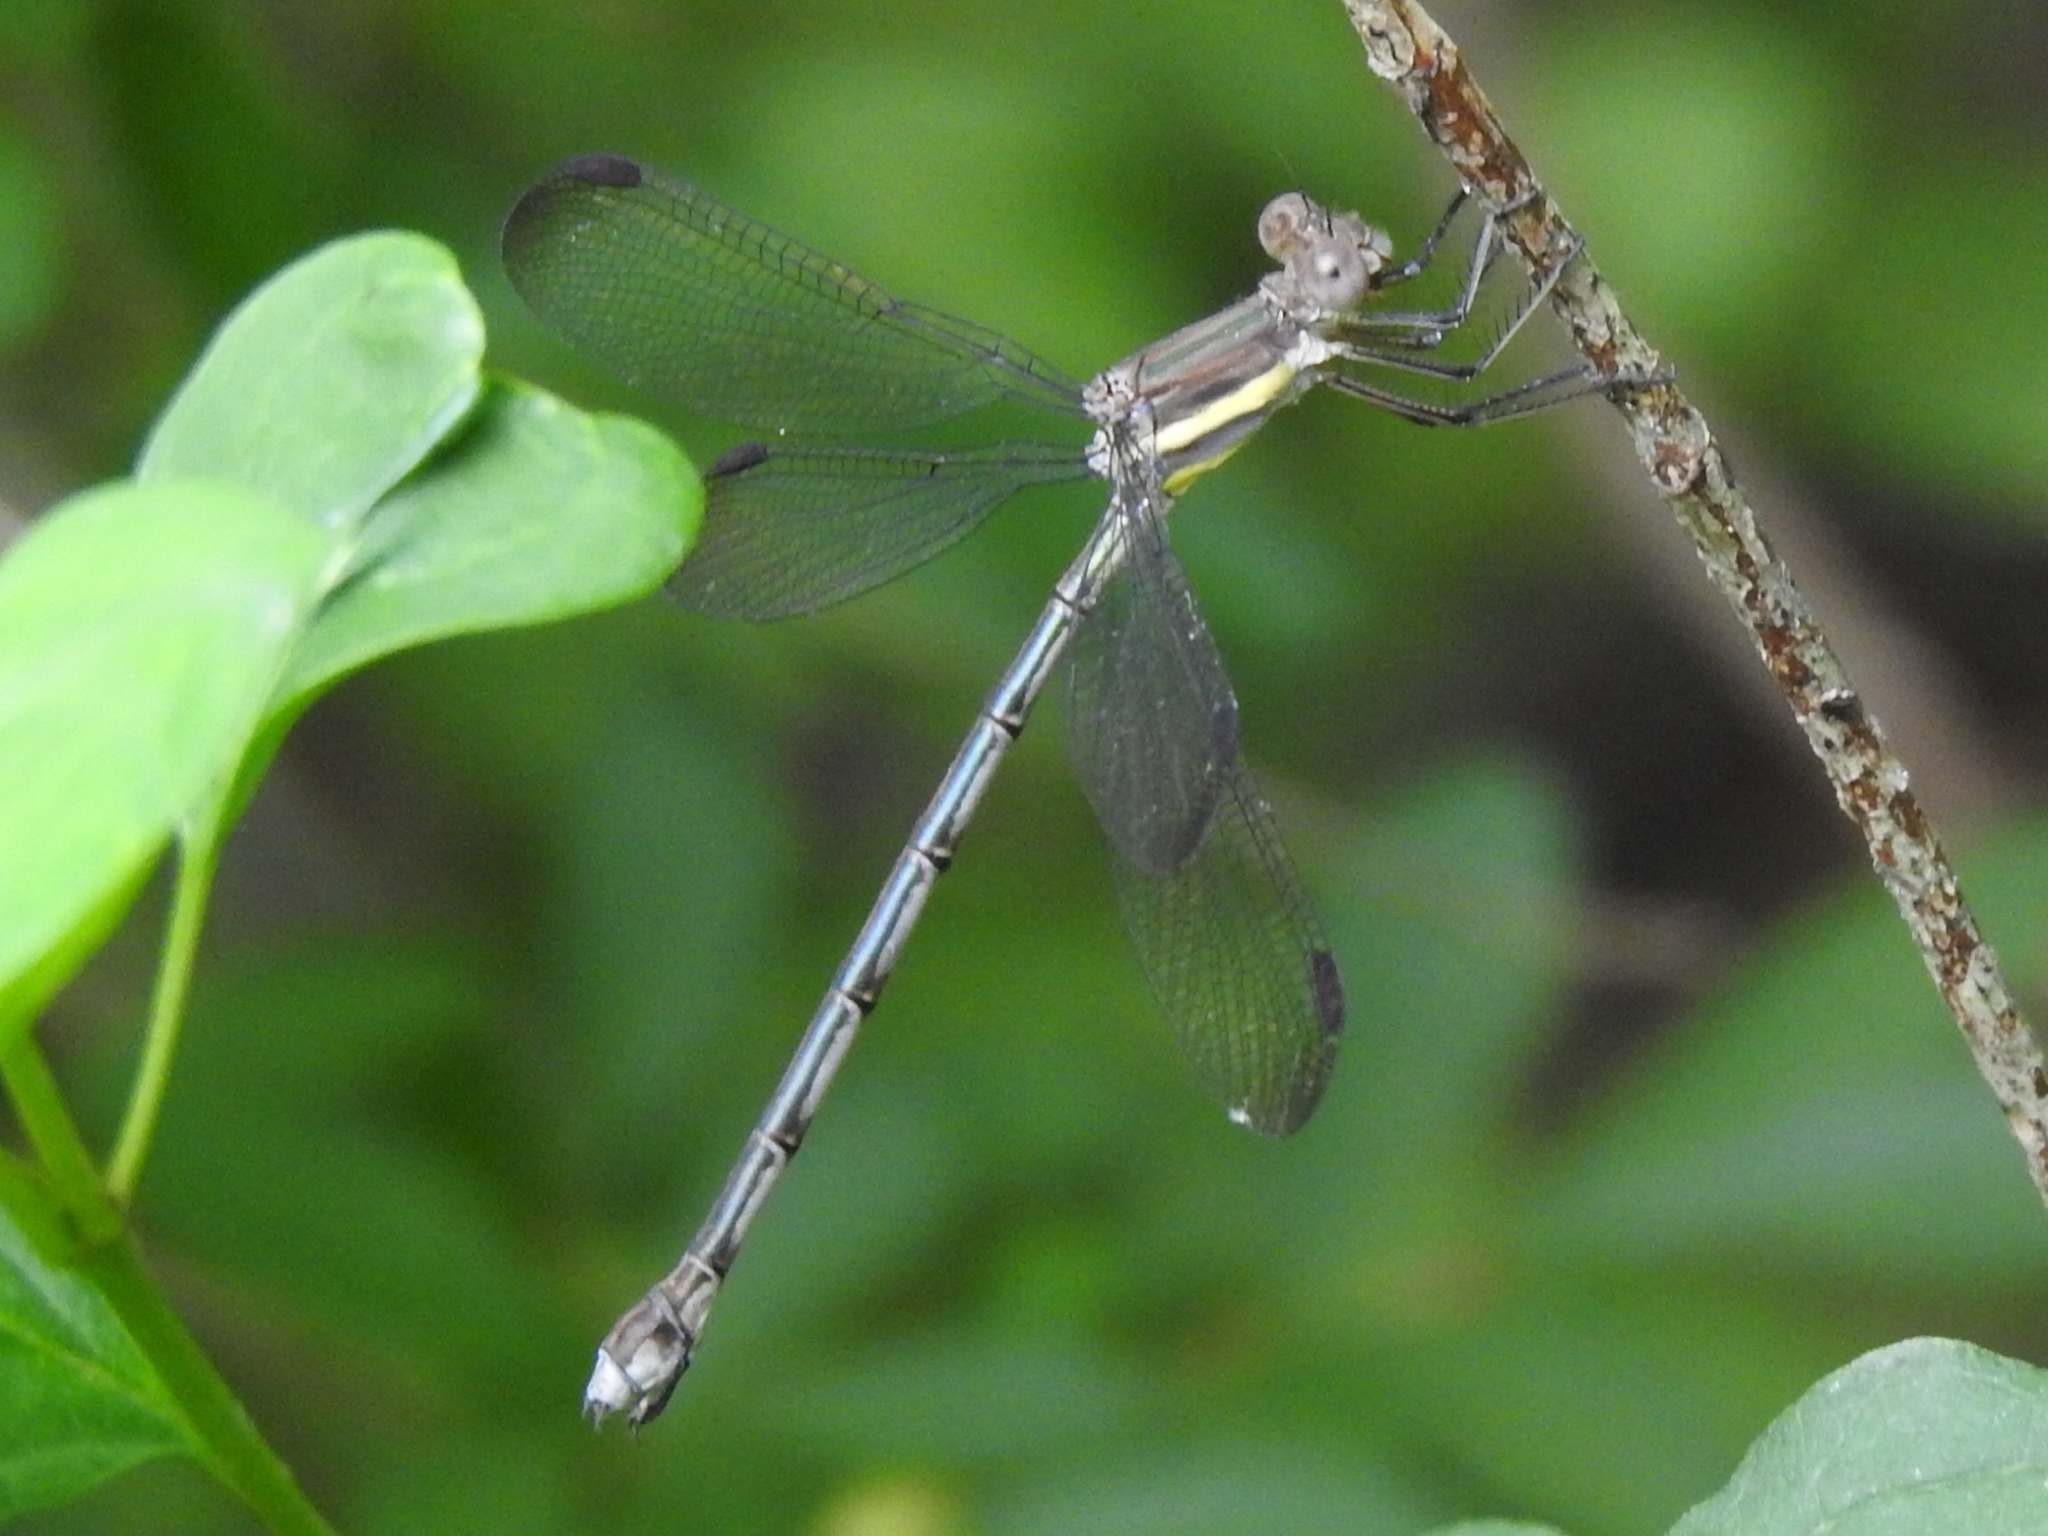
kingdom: Animalia
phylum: Arthropoda
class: Insecta
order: Odonata
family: Lestidae
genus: Archilestes
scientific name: Archilestes grandis
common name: Great spreadwing
